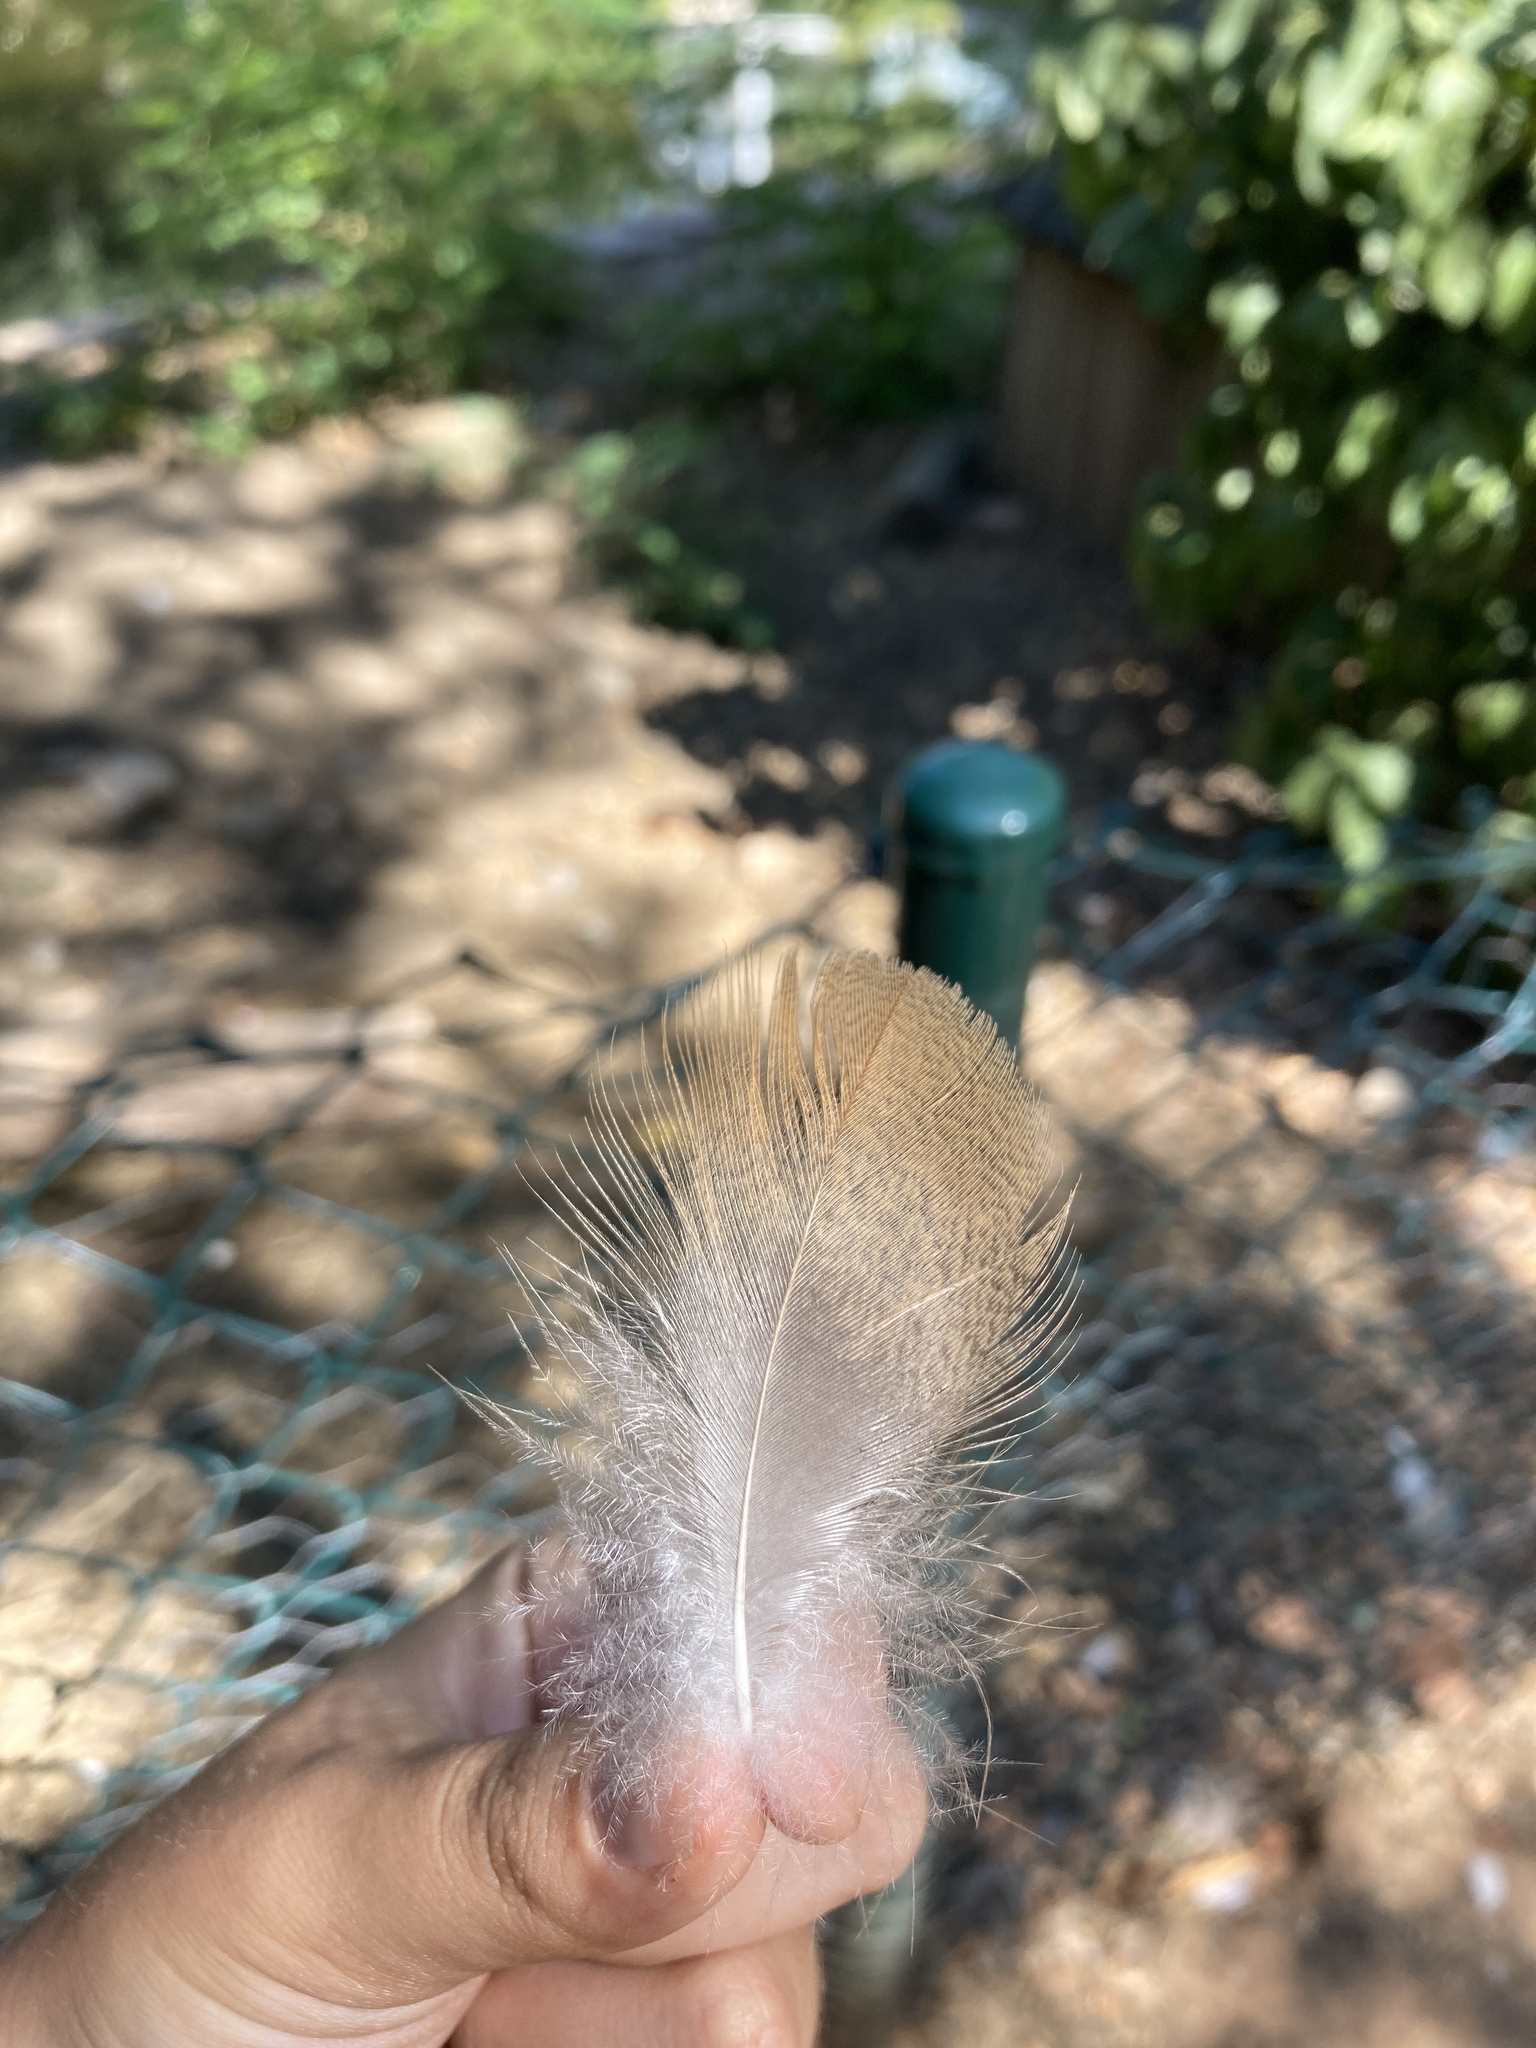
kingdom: Animalia
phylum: Chordata
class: Aves
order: Anseriformes
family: Anatidae
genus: Tadorna
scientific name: Tadorna ferruginea
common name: Ruddy shelduck
